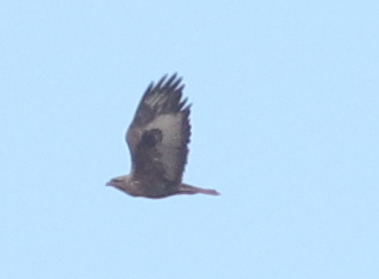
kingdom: Animalia
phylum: Chordata
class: Aves
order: Accipitriformes
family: Accipitridae
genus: Buteo
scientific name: Buteo buteo
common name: Common buzzard
